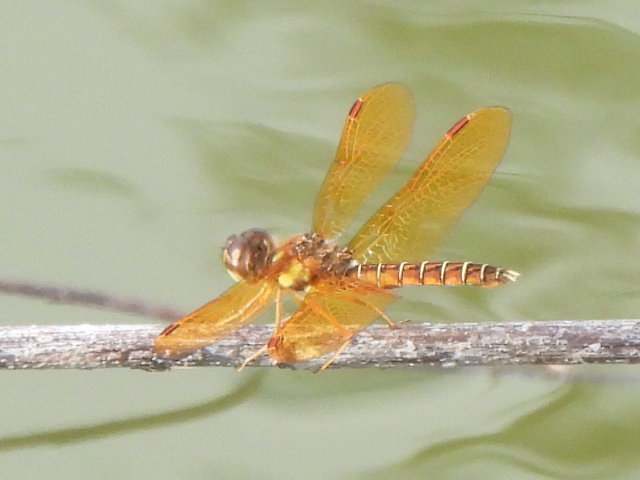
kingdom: Animalia
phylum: Arthropoda
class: Insecta
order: Odonata
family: Libellulidae
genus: Perithemis
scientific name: Perithemis tenera
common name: Eastern amberwing
